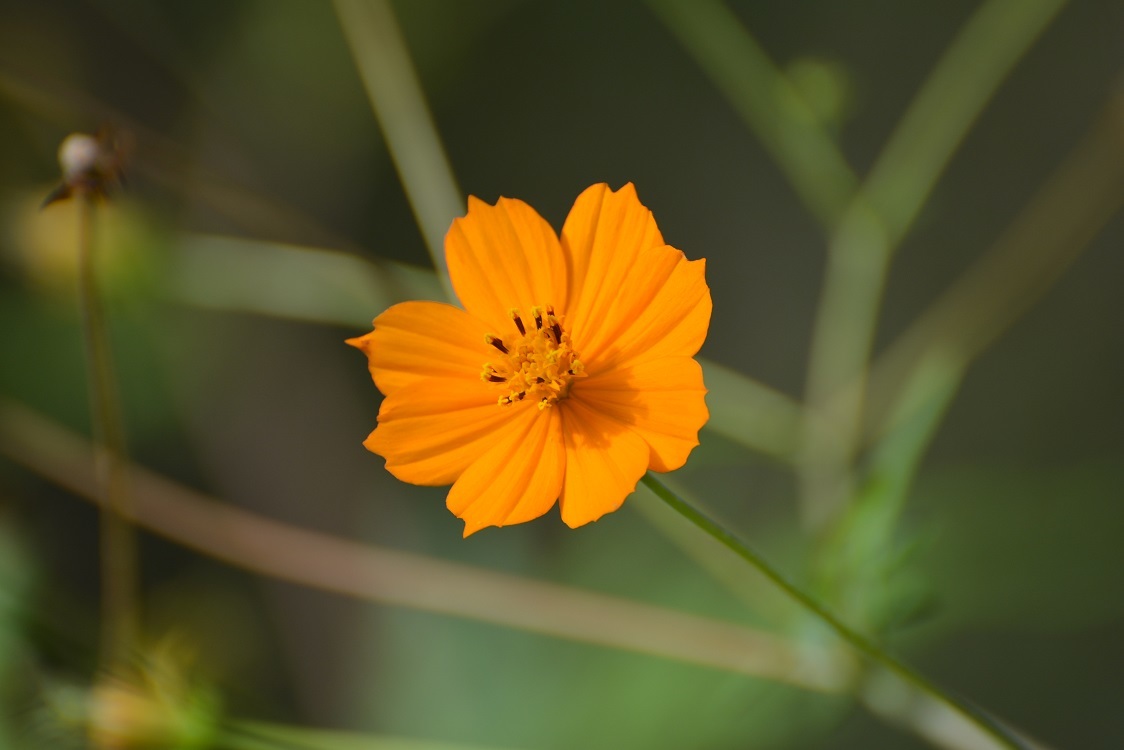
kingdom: Plantae
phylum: Tracheophyta
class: Magnoliopsida
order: Asterales
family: Asteraceae
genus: Cosmos
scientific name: Cosmos sulphureus
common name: Sulphur cosmos
